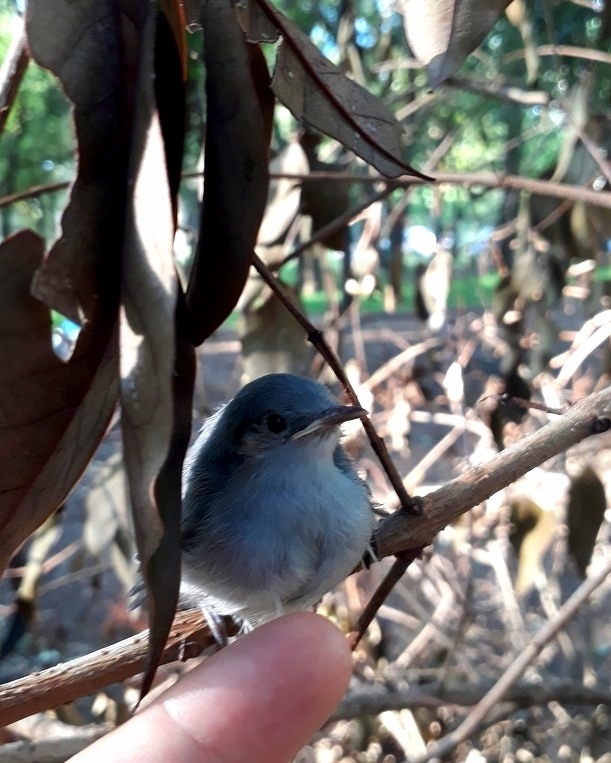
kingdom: Animalia
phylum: Chordata
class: Aves
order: Passeriformes
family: Polioptilidae
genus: Polioptila
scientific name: Polioptila dumicola
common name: Masked gnatcatcher
